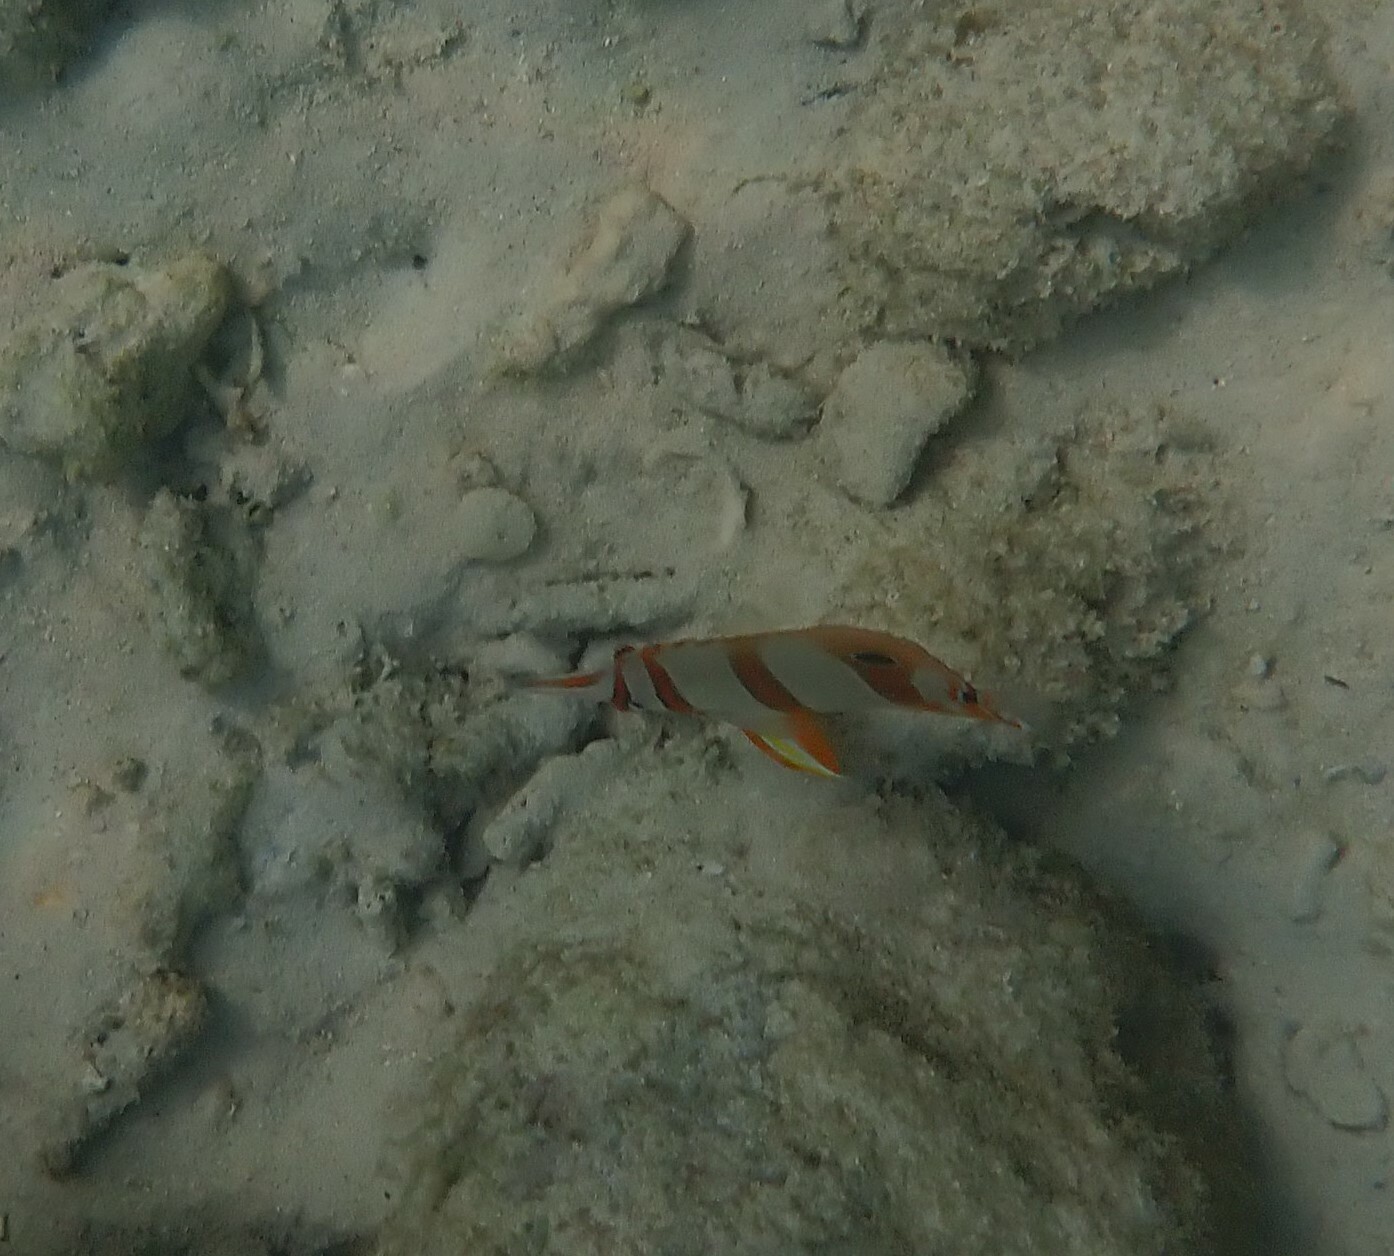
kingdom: Animalia
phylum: Chordata
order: Perciformes
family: Chaetodontidae
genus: Chelmon
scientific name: Chelmon rostratus
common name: Beaked butterflyfish
